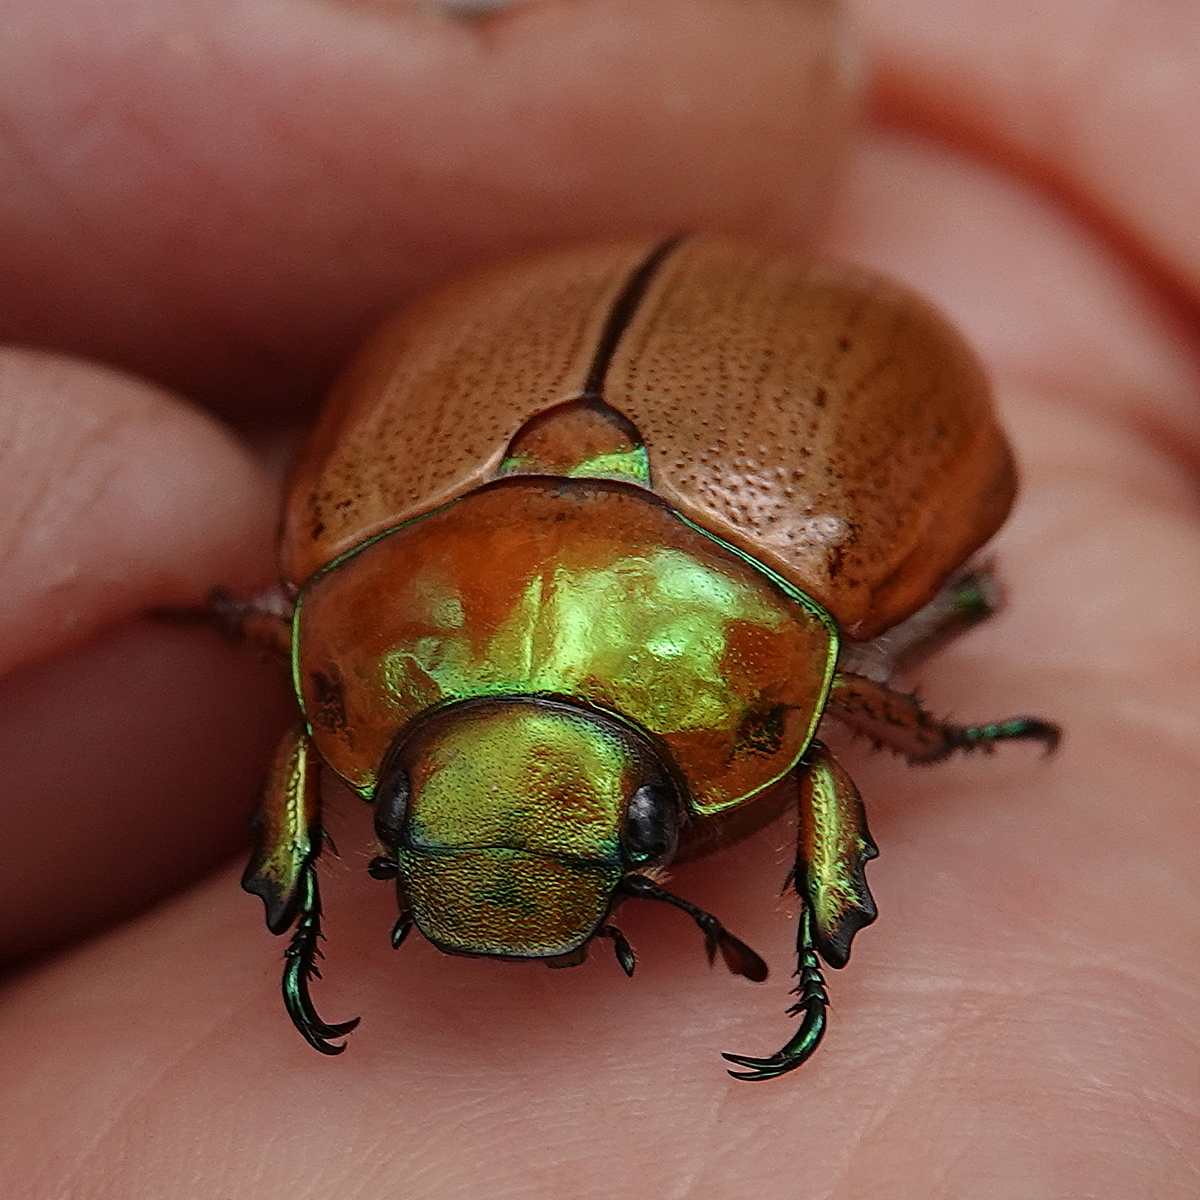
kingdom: Animalia
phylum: Arthropoda
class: Insecta
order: Coleoptera
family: Scarabaeidae
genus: Anoplognathus
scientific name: Anoplognathus brunnipennis
